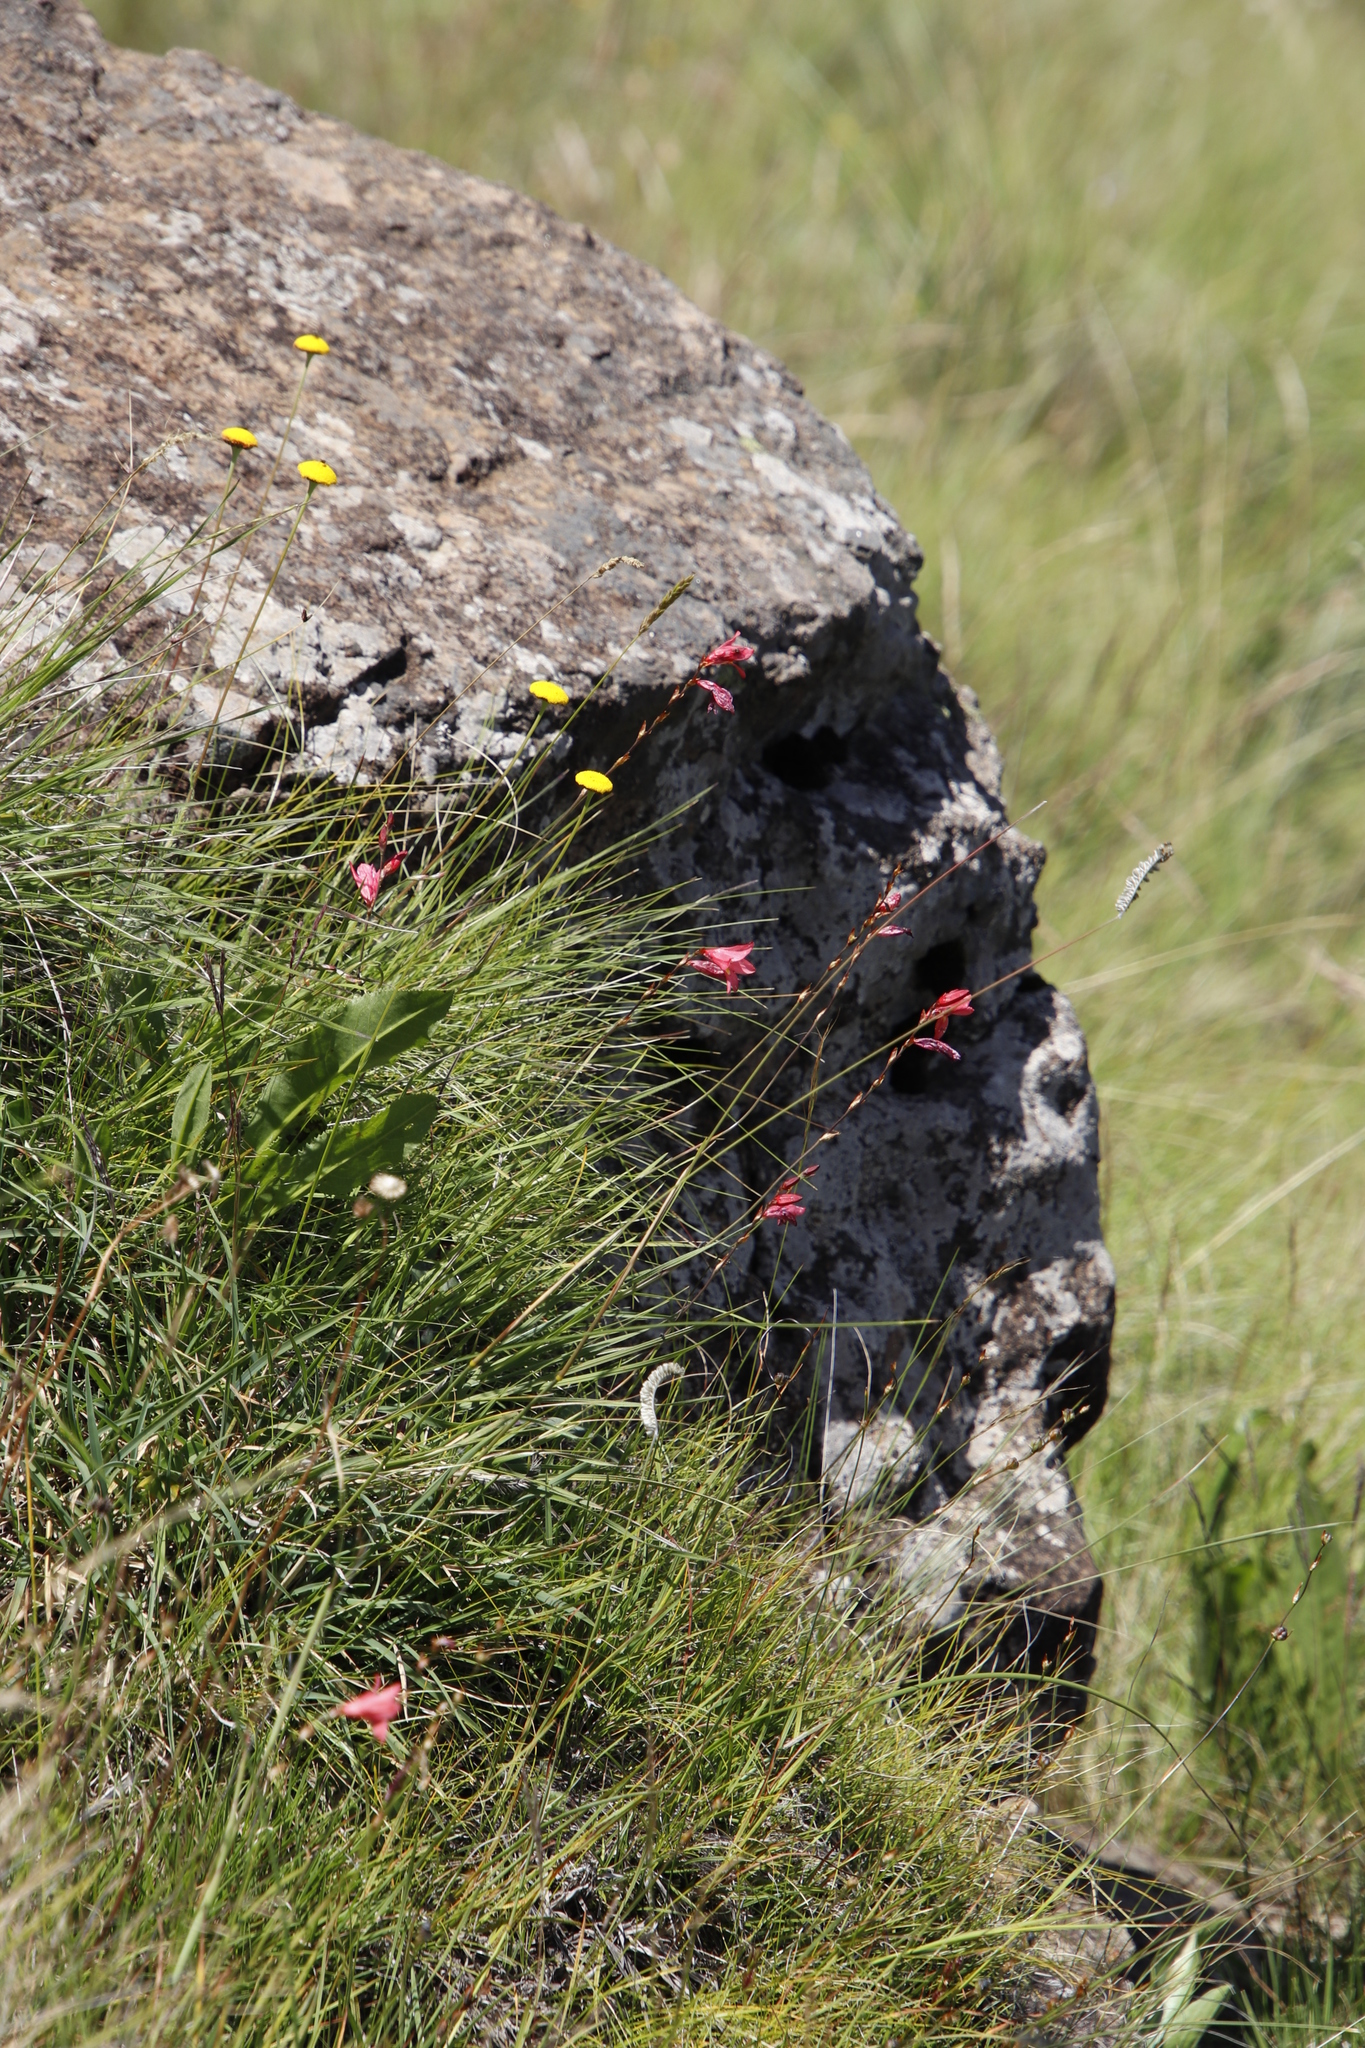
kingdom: Plantae
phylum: Tracheophyta
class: Liliopsida
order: Asparagales
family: Iridaceae
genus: Tritonia
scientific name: Tritonia drakensbergensis
